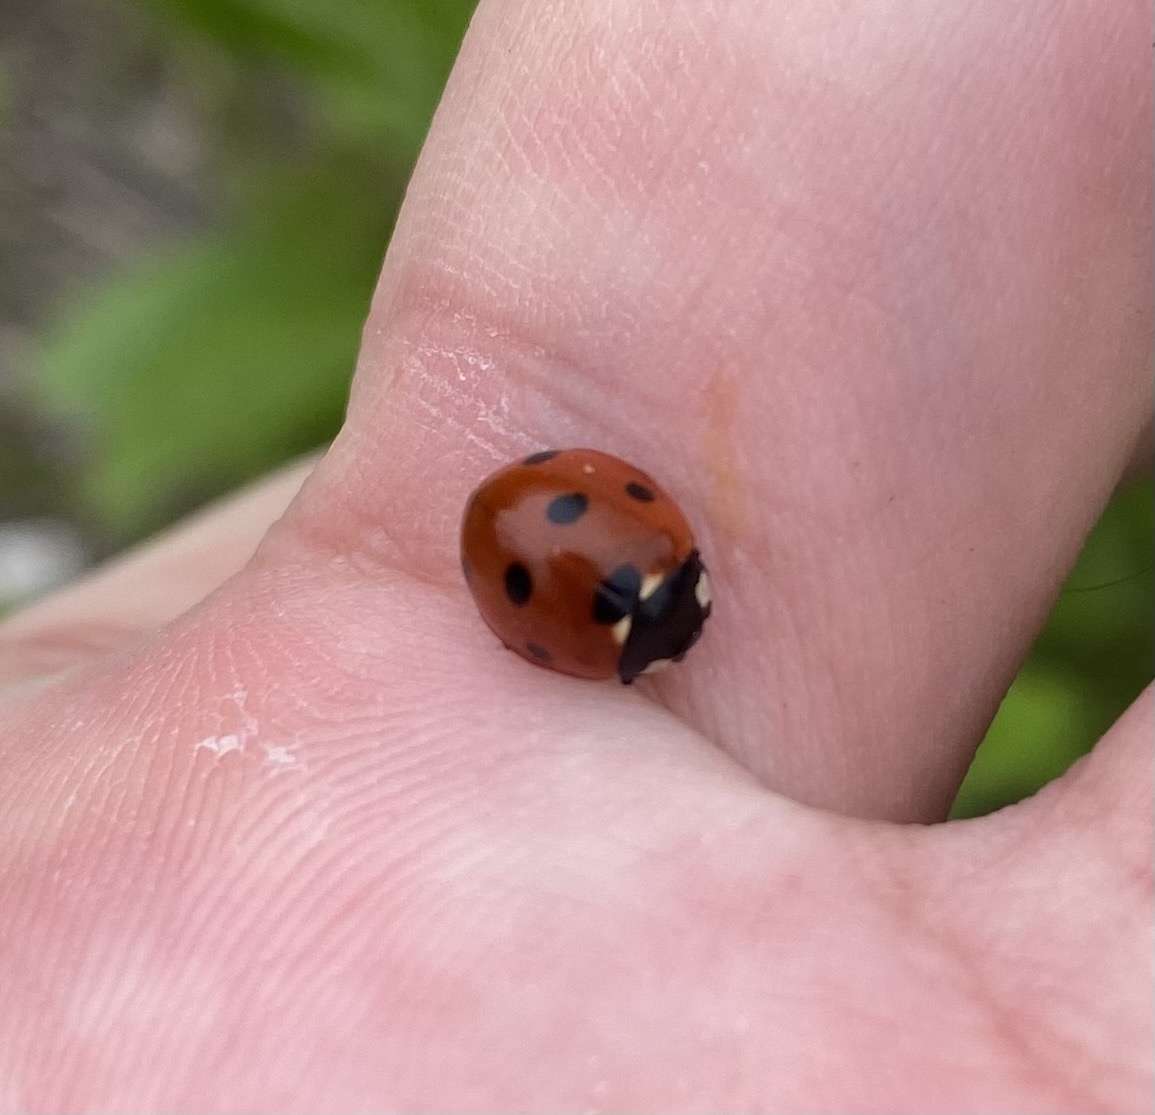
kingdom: Animalia
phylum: Arthropoda
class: Insecta
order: Coleoptera
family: Coccinellidae
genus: Coccinella
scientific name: Coccinella septempunctata
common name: Sevenspotted lady beetle
